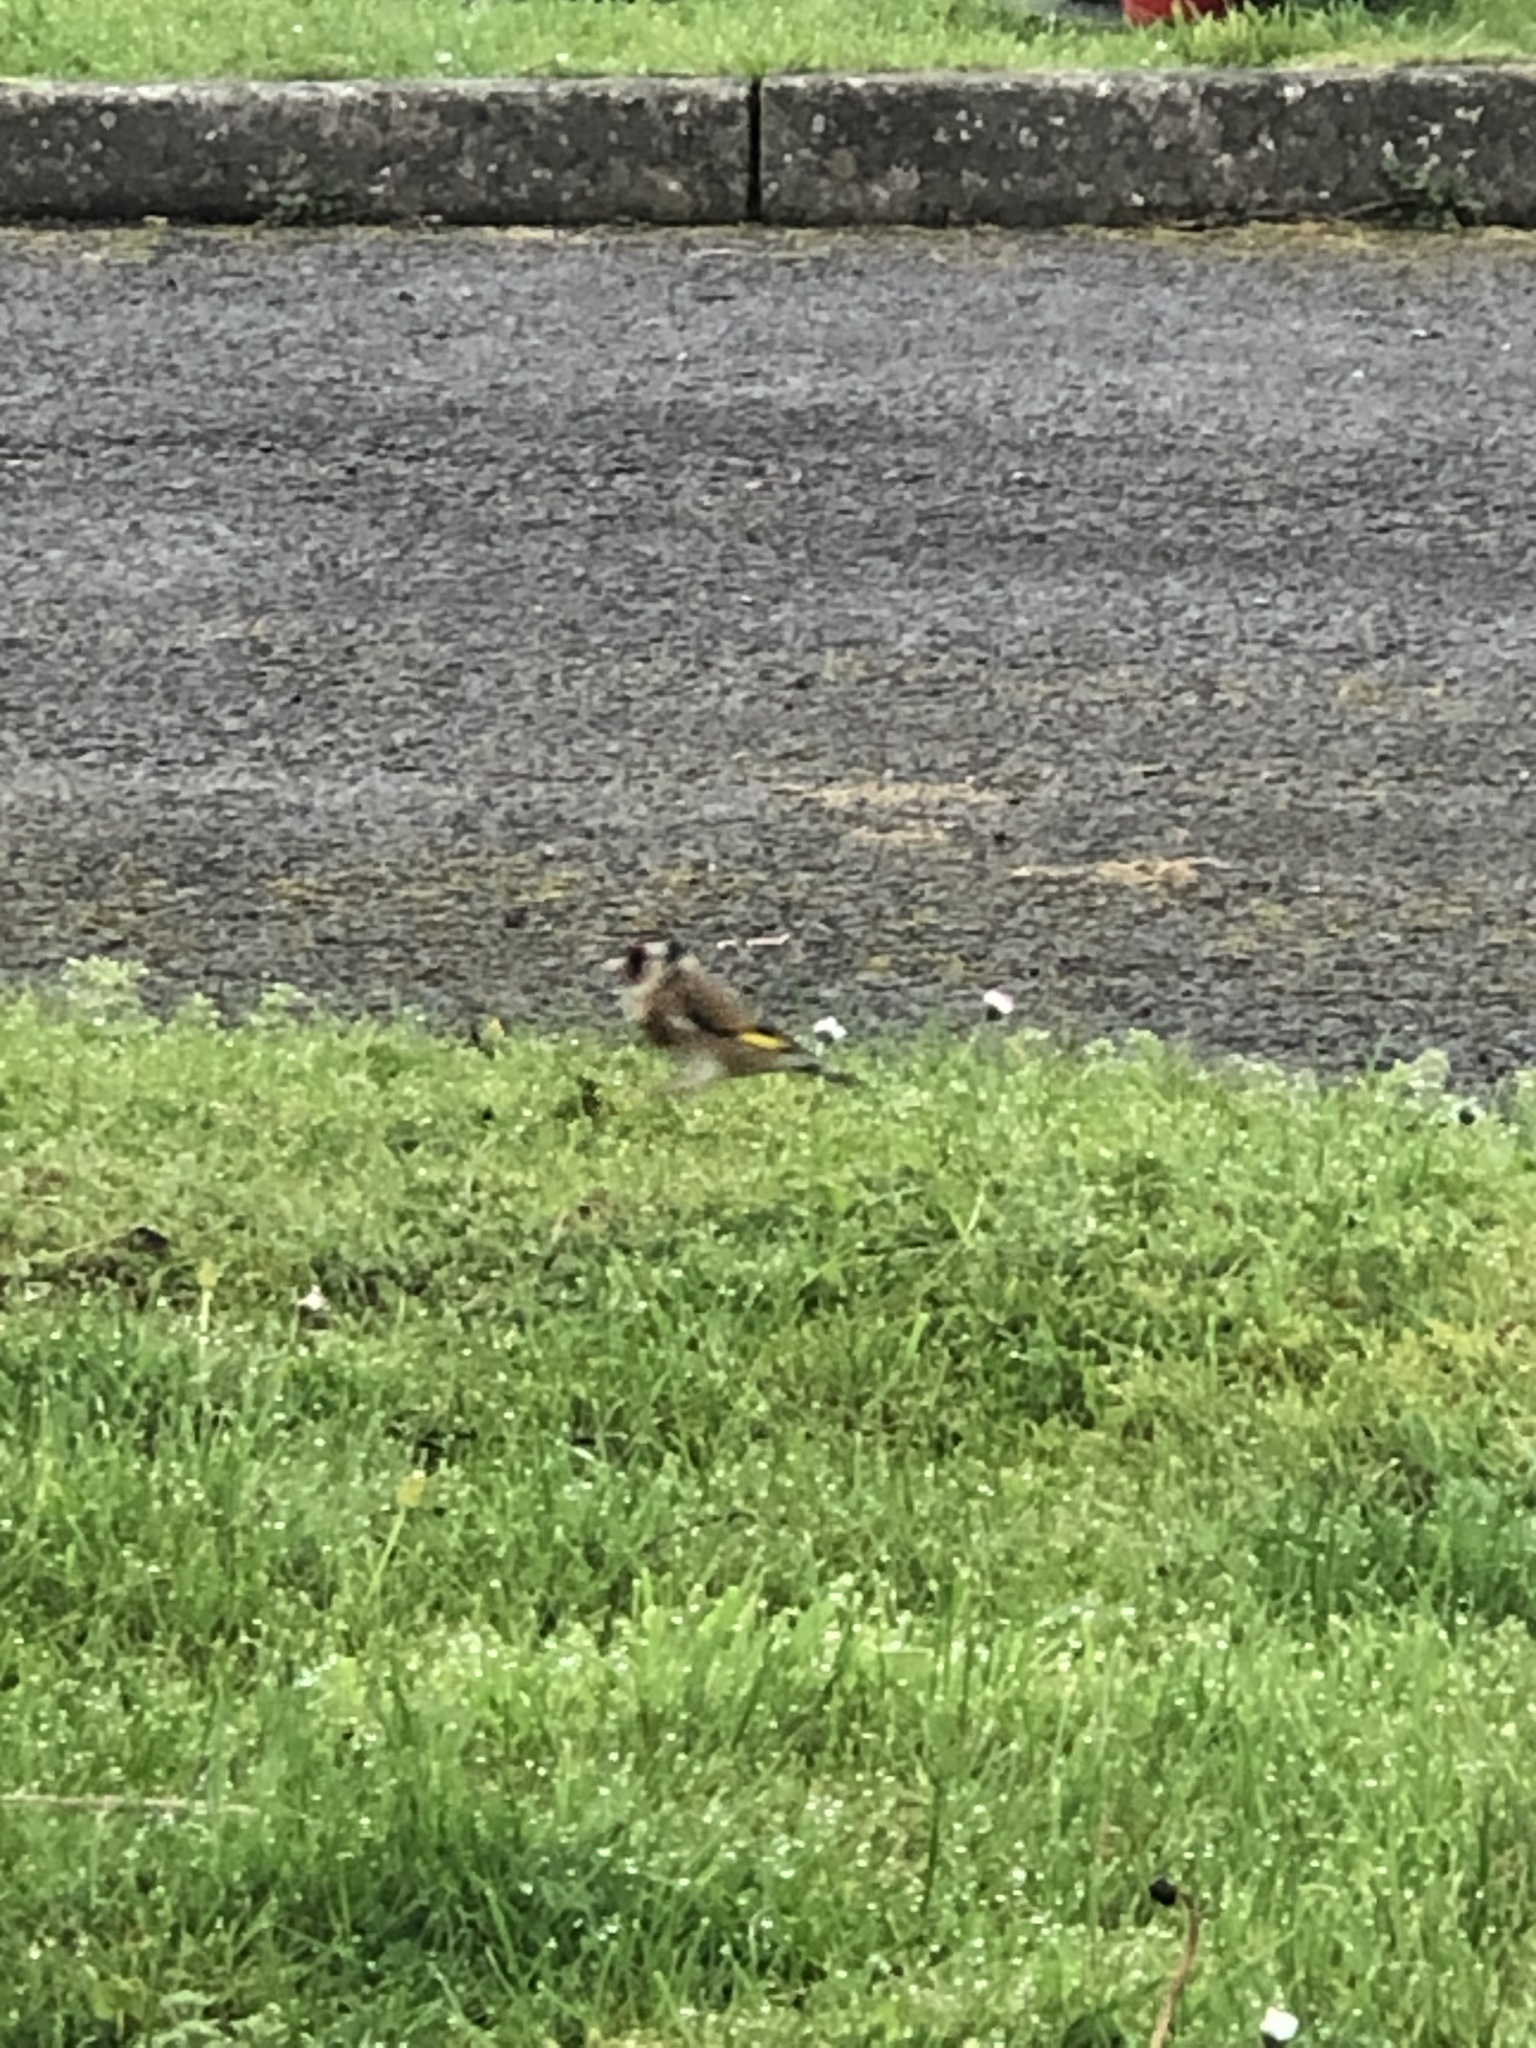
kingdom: Animalia
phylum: Chordata
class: Aves
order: Passeriformes
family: Fringillidae
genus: Carduelis
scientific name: Carduelis carduelis
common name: European goldfinch
